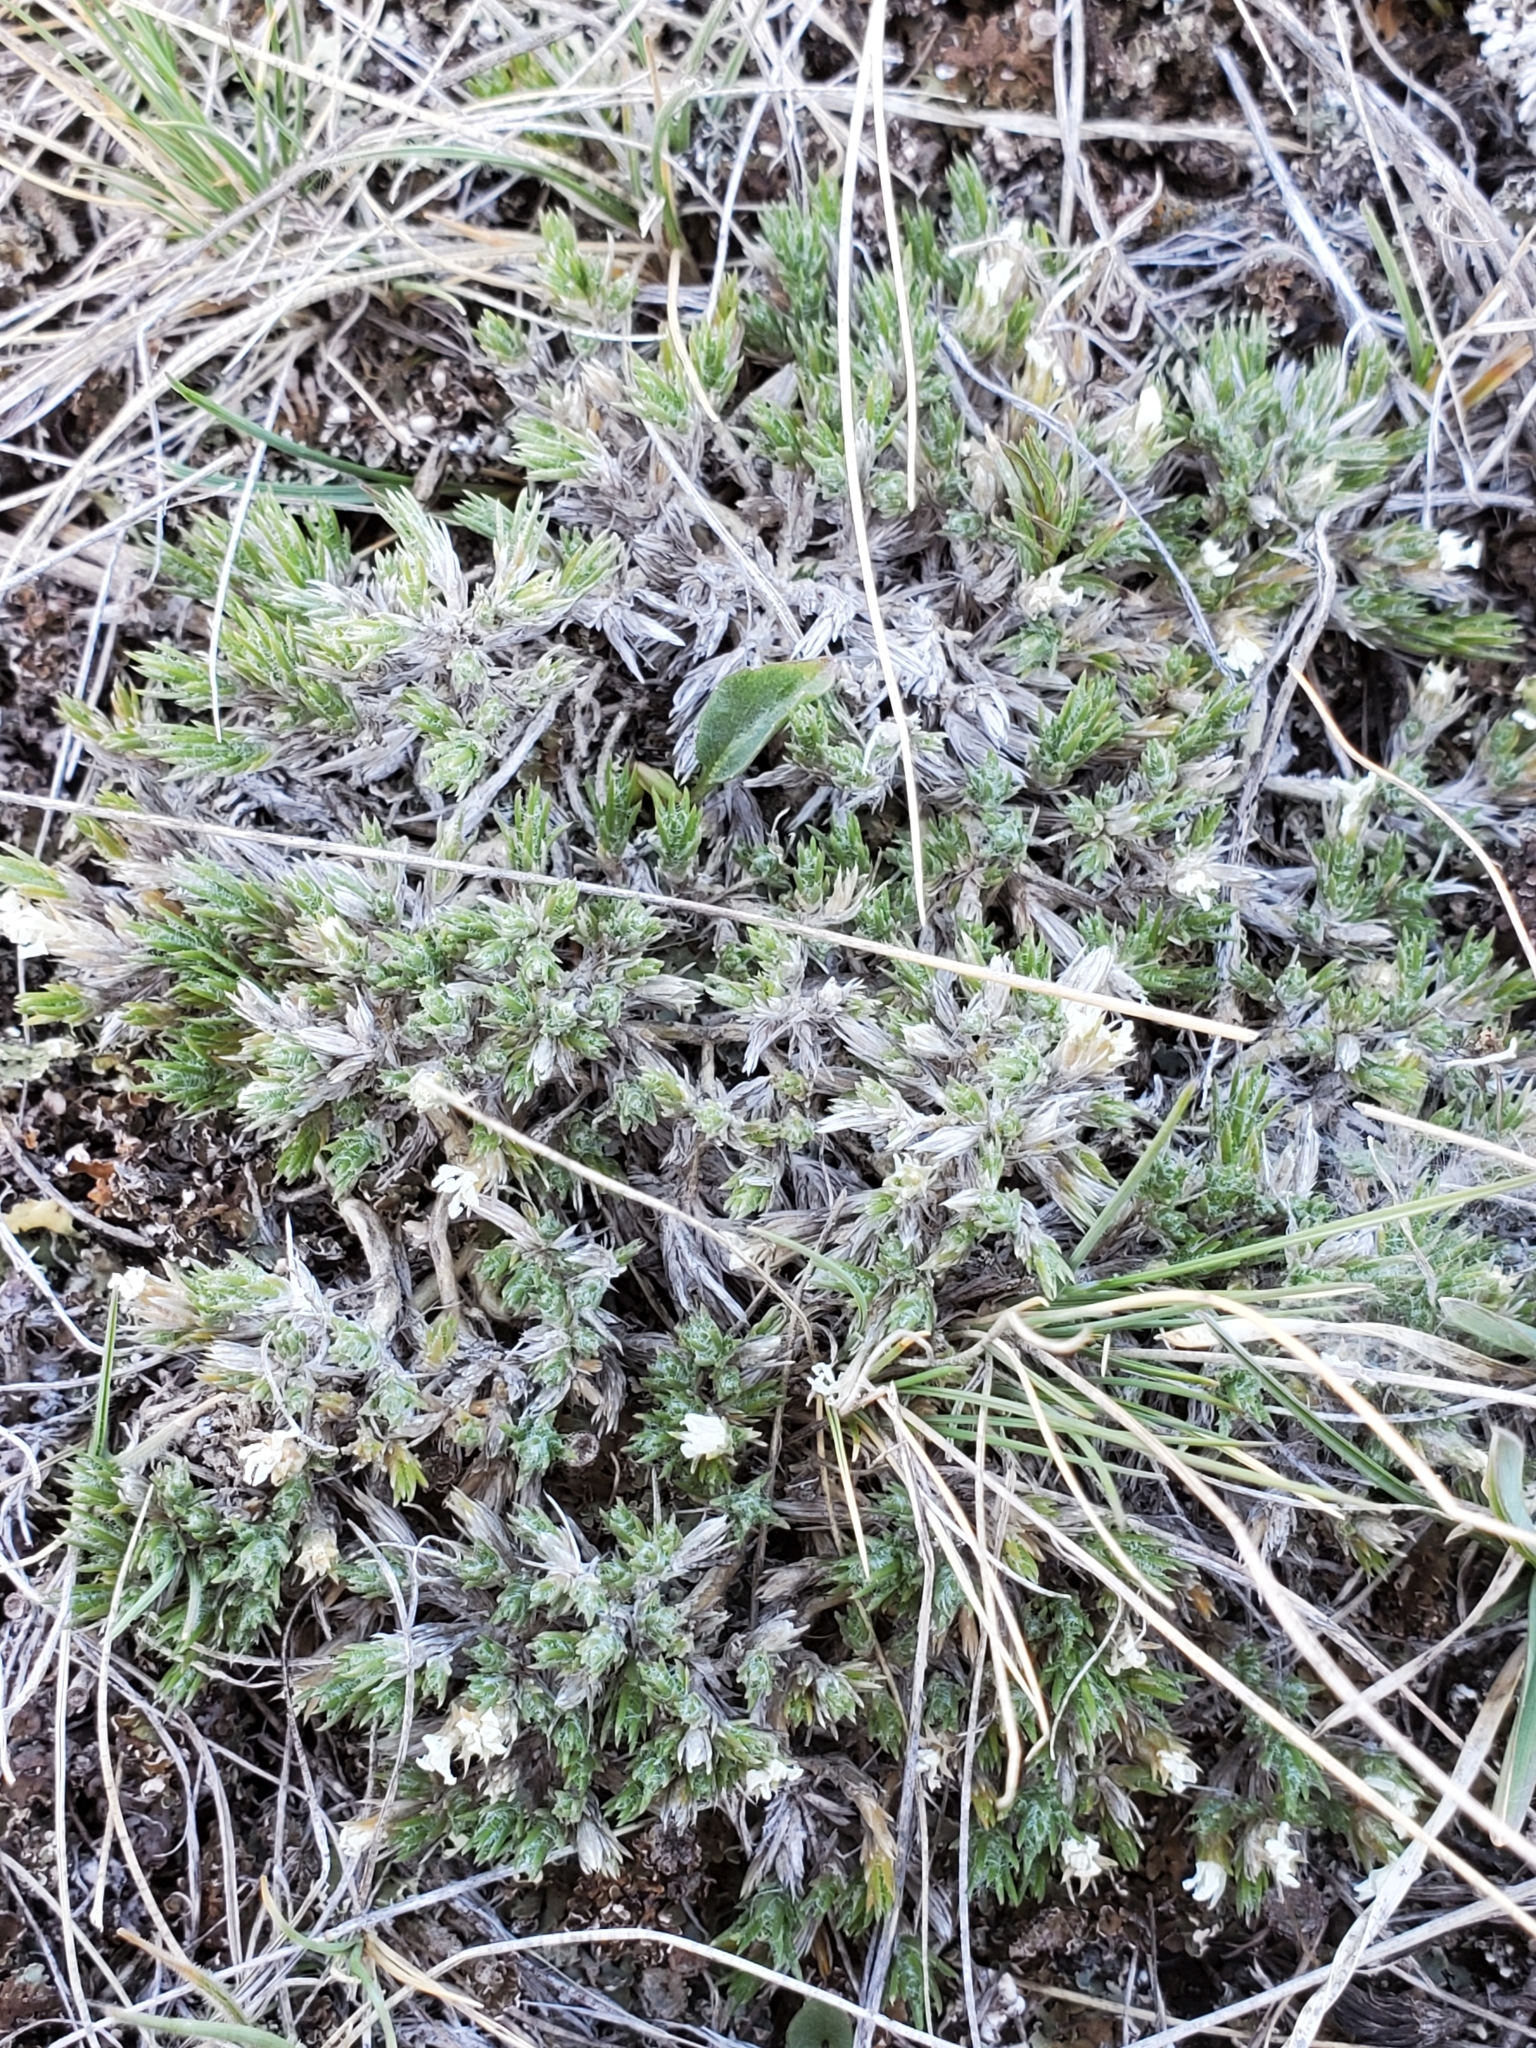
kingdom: Plantae
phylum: Tracheophyta
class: Magnoliopsida
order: Ericales
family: Polemoniaceae
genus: Phlox
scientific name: Phlox hoodii
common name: Moss phlox
